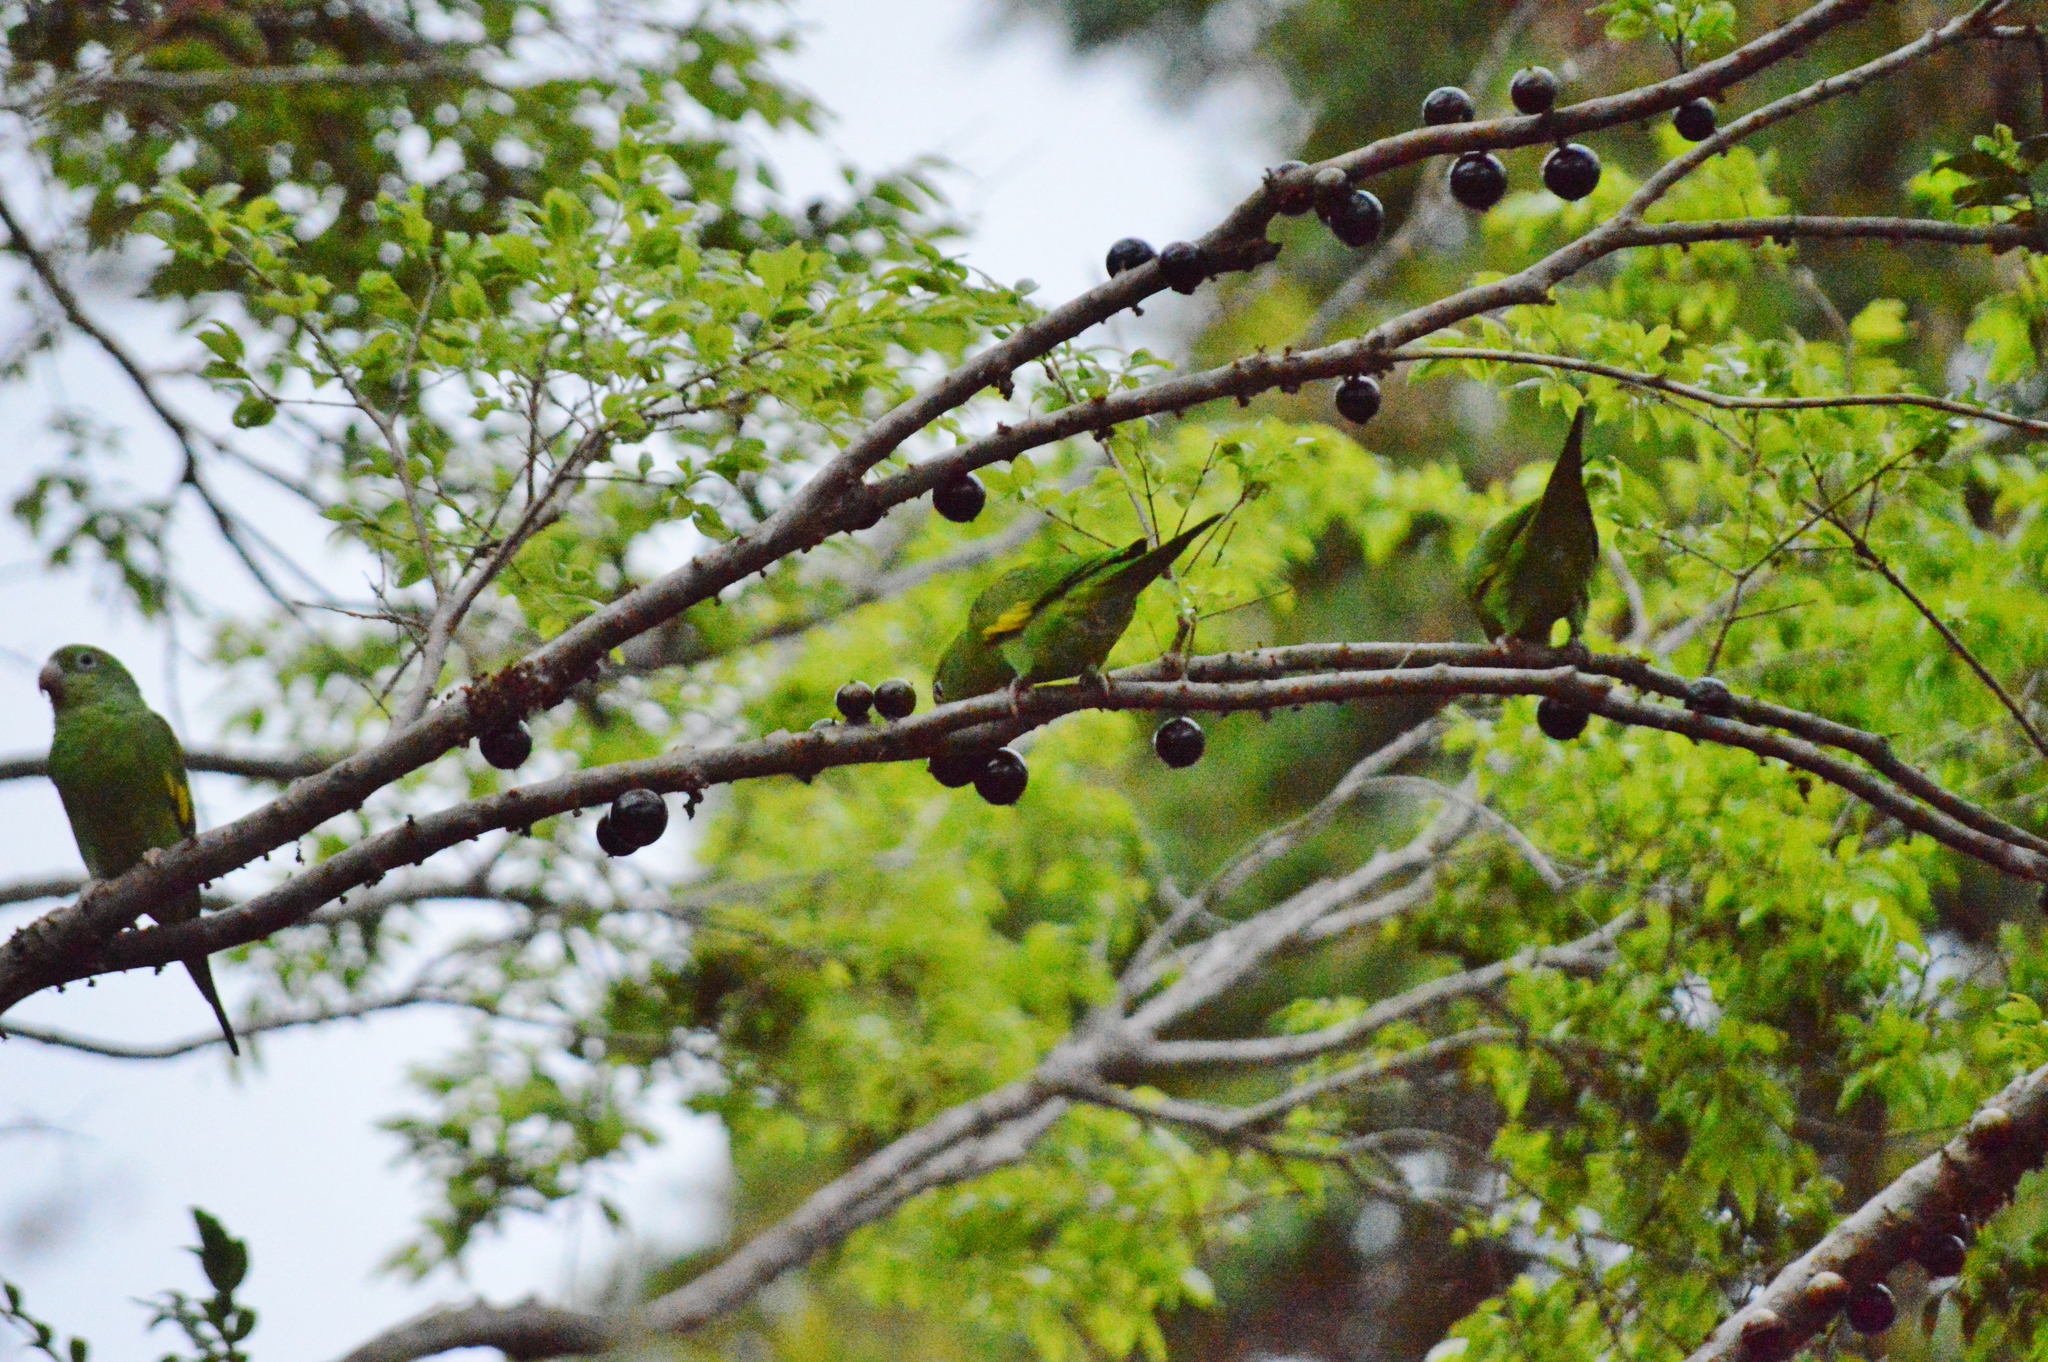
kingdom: Animalia
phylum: Chordata
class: Aves
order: Psittaciformes
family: Psittacidae
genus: Brotogeris
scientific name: Brotogeris chiriri
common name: Yellow-chevroned parakeet
